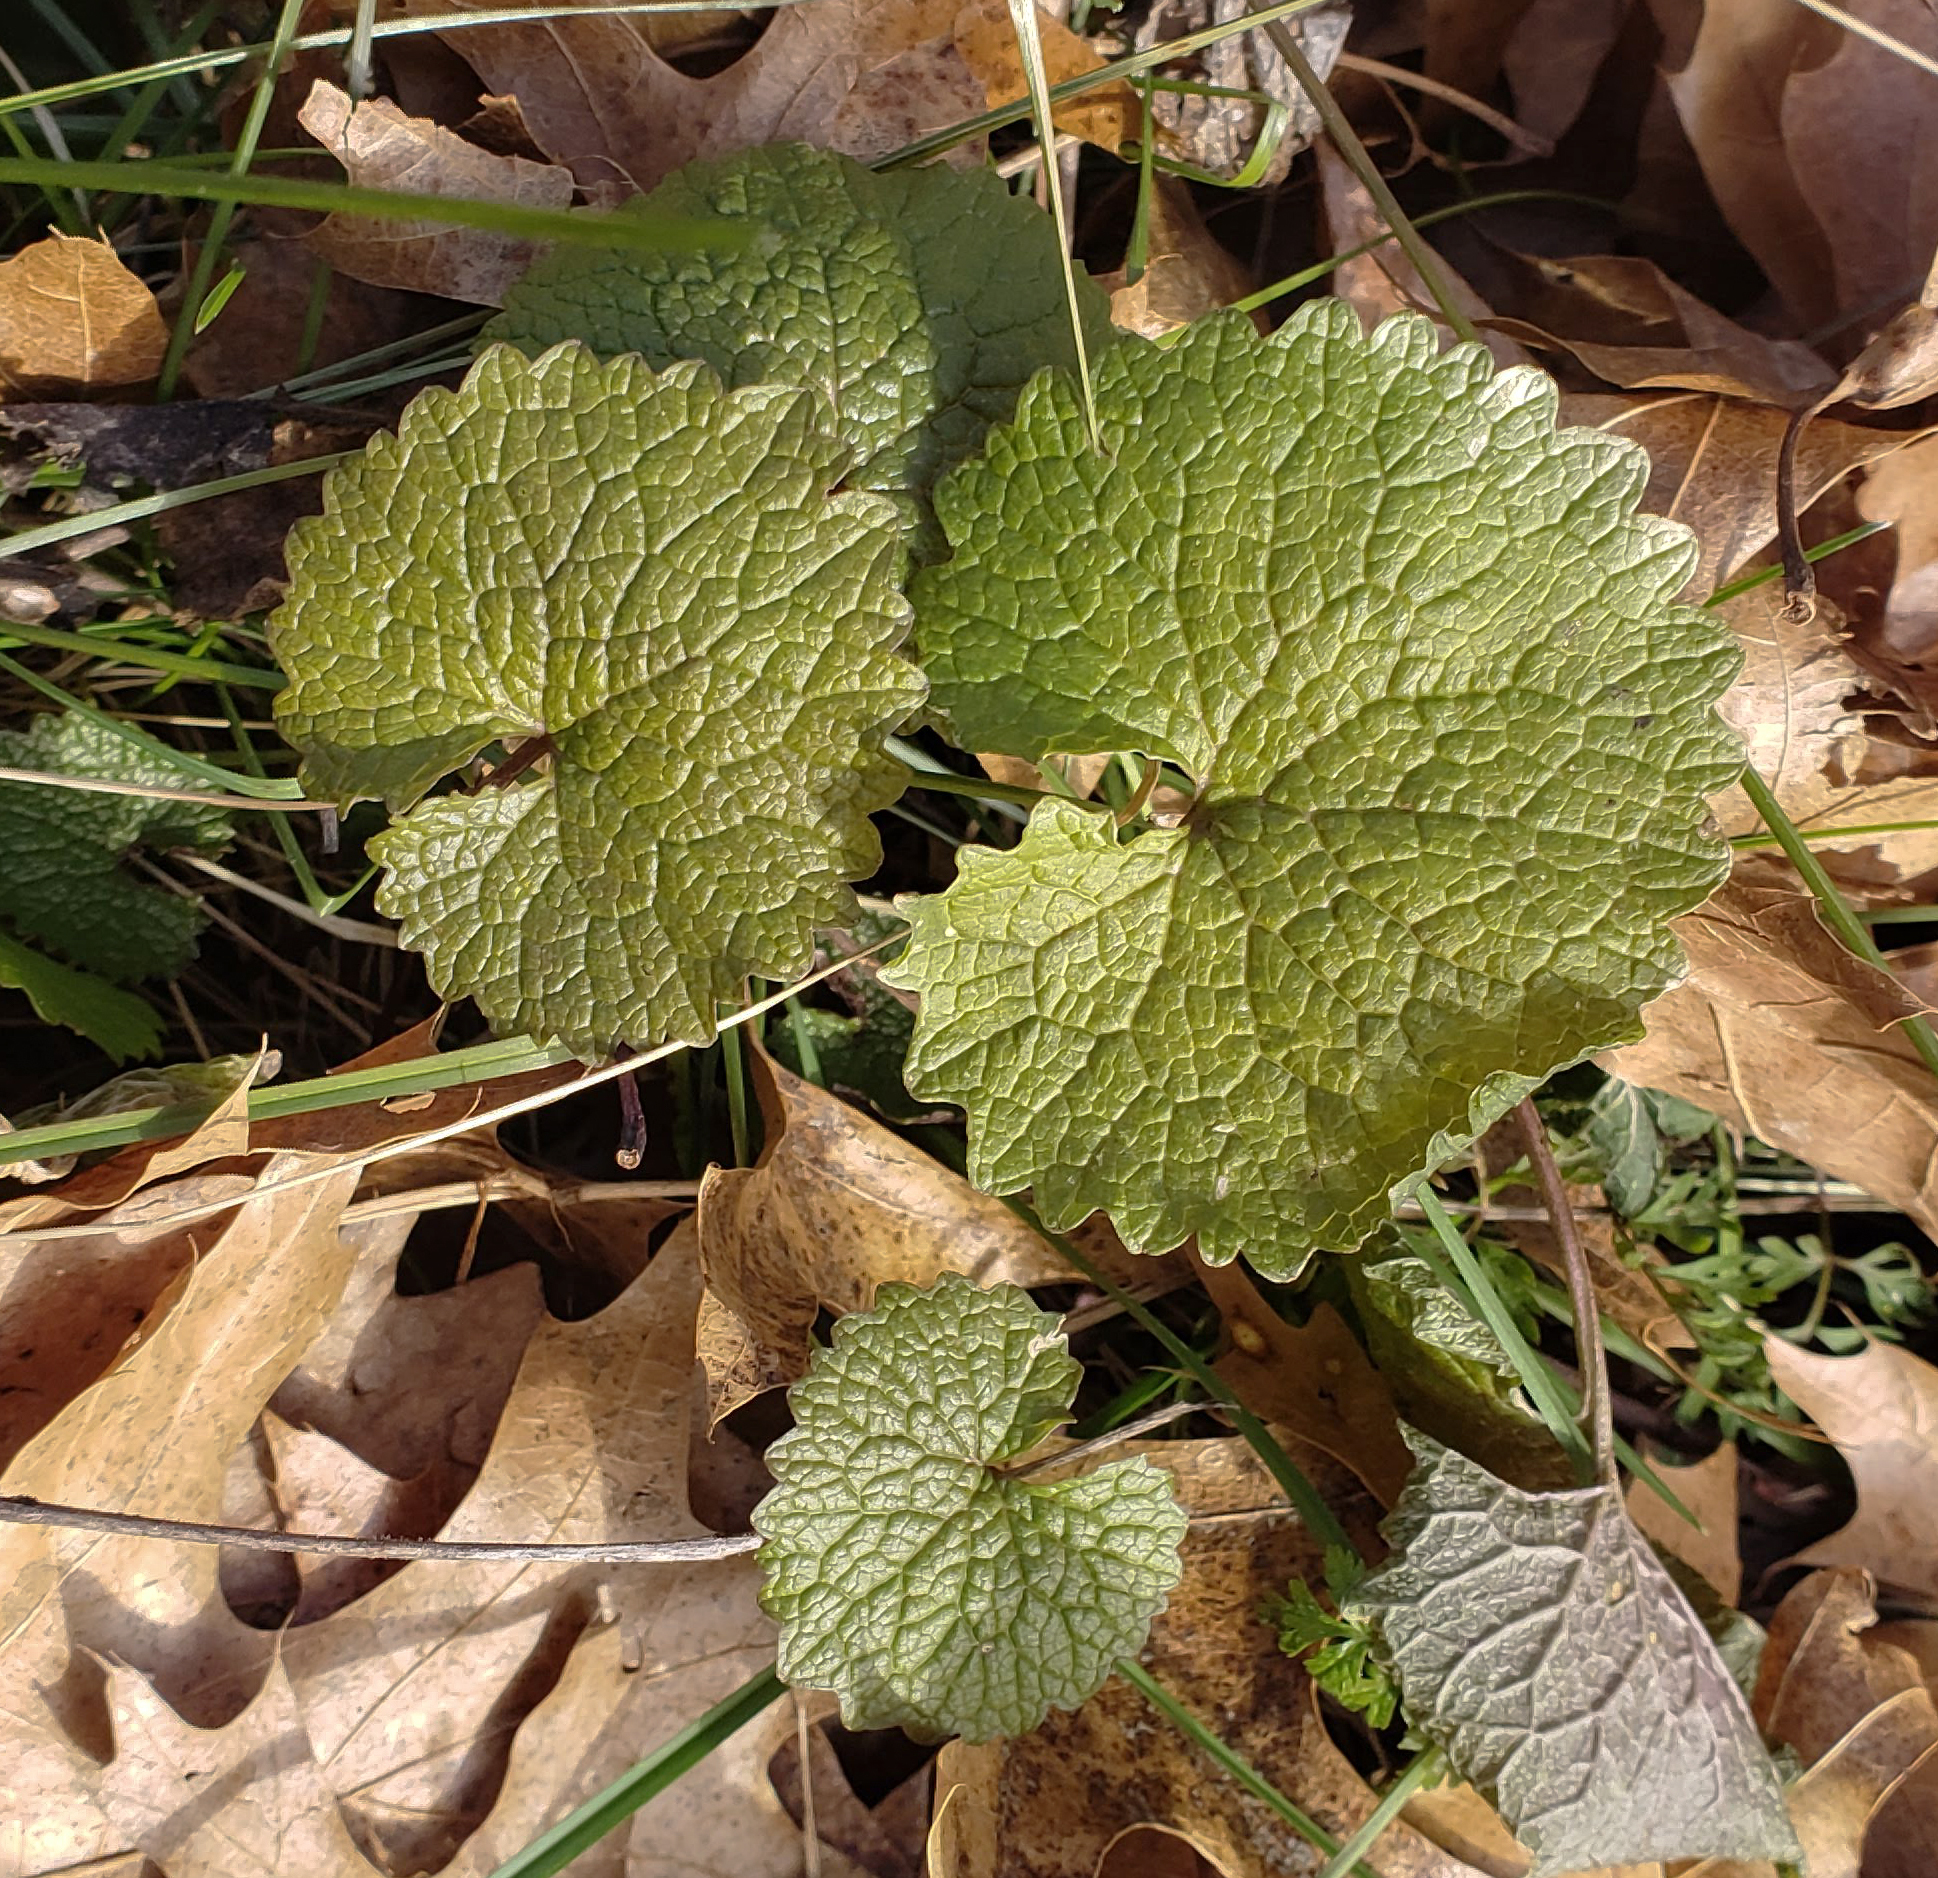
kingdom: Plantae
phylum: Tracheophyta
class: Magnoliopsida
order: Brassicales
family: Brassicaceae
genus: Alliaria
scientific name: Alliaria petiolata
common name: Garlic mustard
